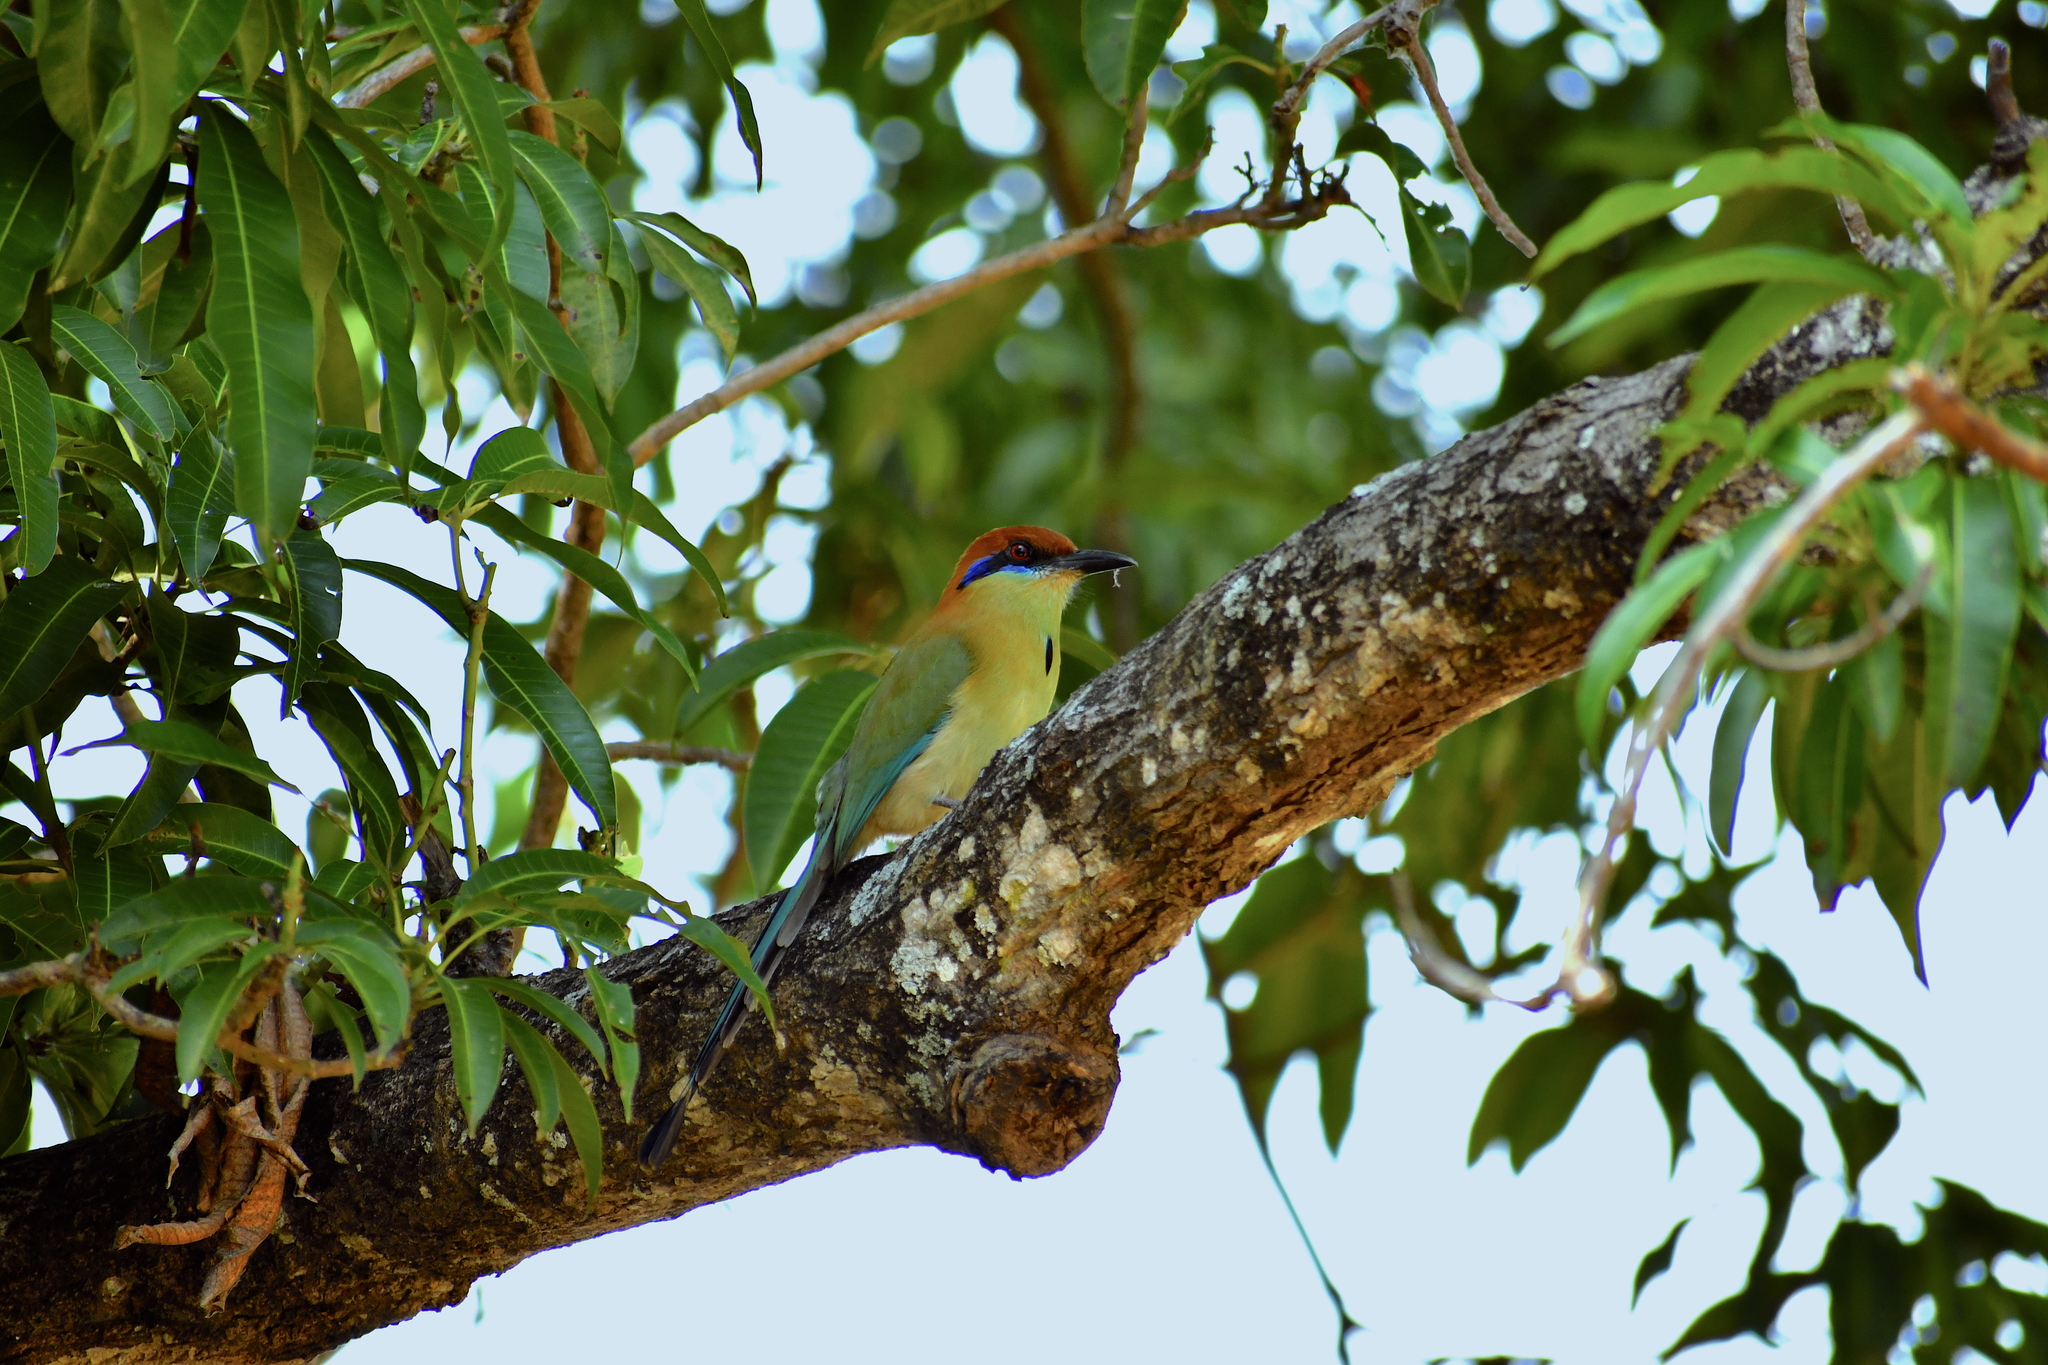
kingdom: Animalia
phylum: Chordata
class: Aves
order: Coraciiformes
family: Momotidae
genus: Momotus
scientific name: Momotus mexicanus
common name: Russet-crowned motmot
